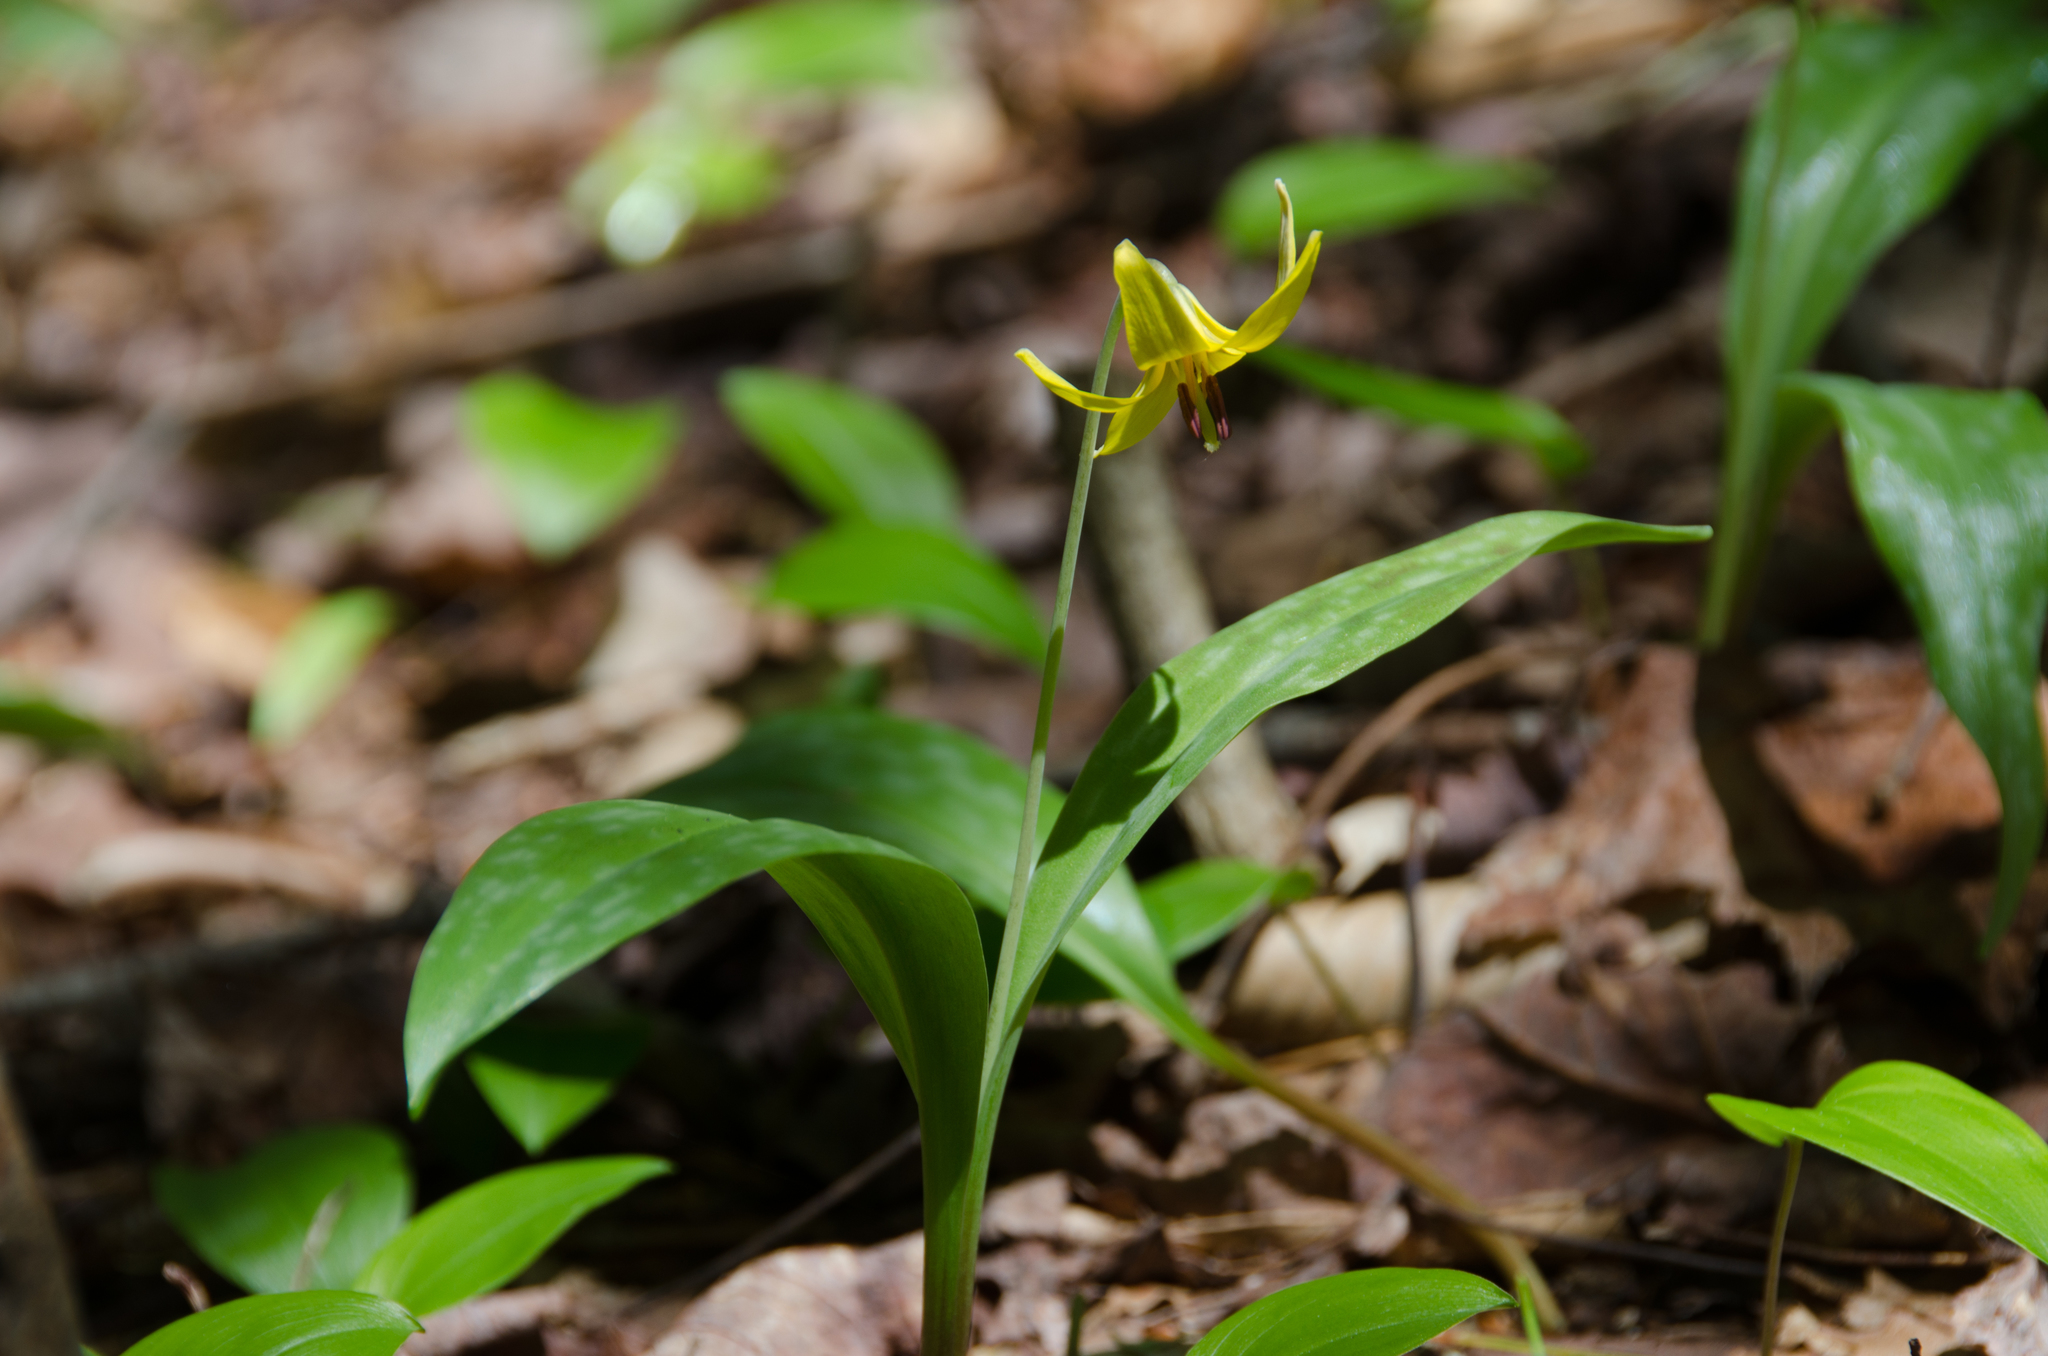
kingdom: Plantae
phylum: Tracheophyta
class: Liliopsida
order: Liliales
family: Liliaceae
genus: Erythronium
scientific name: Erythronium americanum
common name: Yellow adder's-tongue
